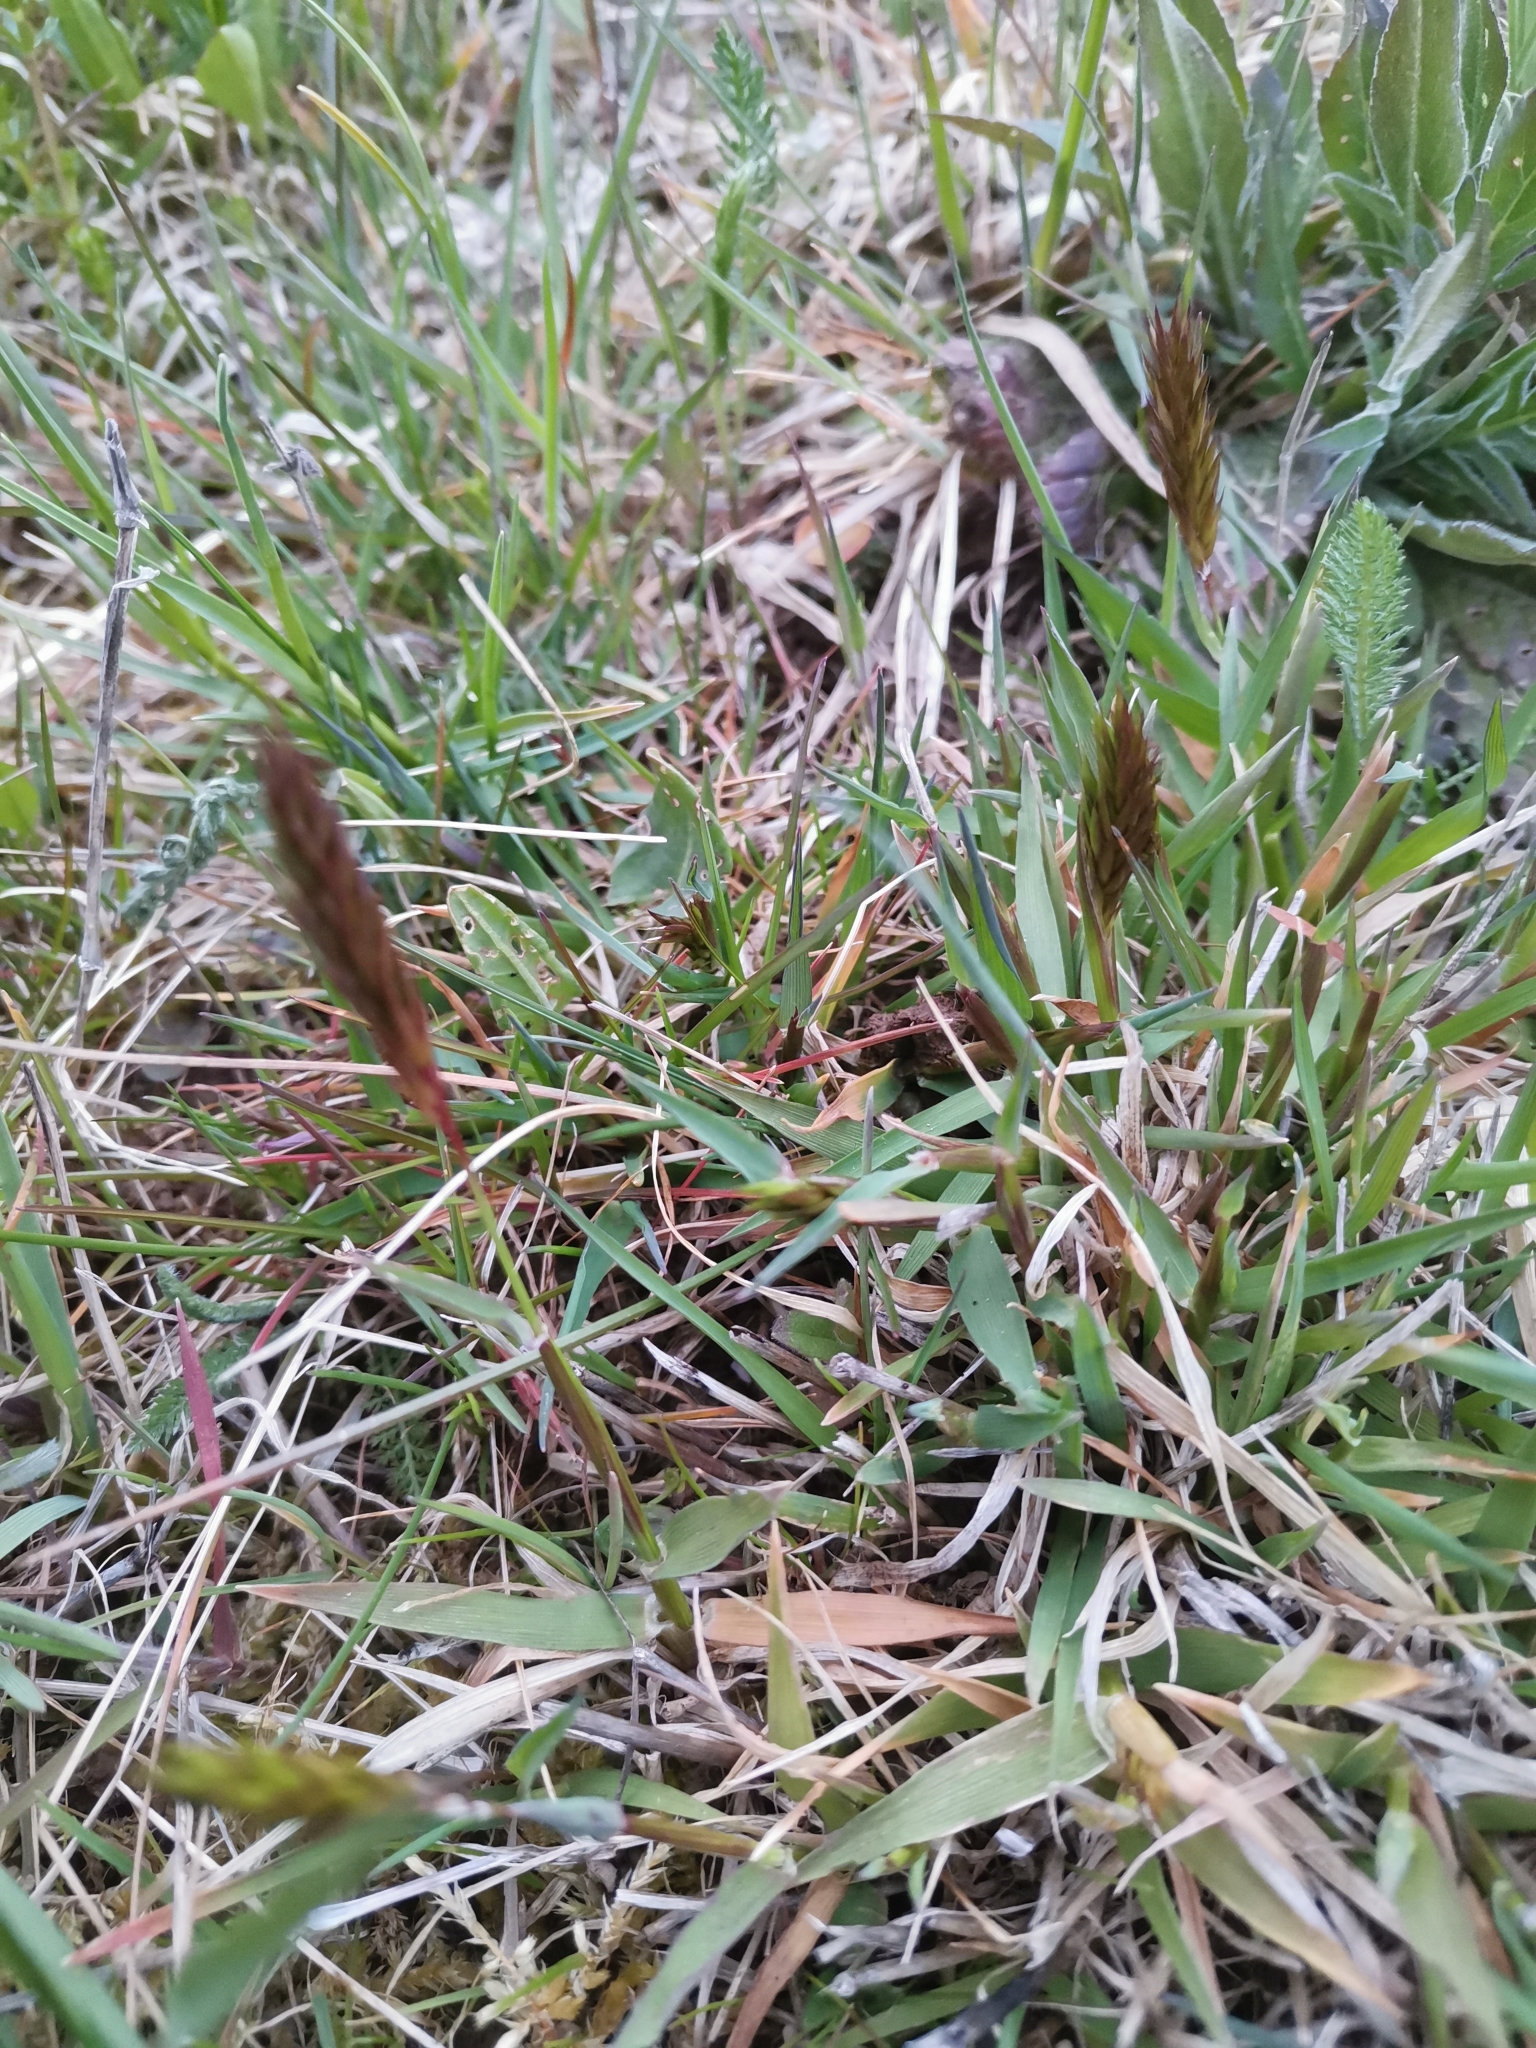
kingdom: Plantae
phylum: Tracheophyta
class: Liliopsida
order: Poales
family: Poaceae
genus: Anthoxanthum
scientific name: Anthoxanthum odoratum
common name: Sweet vernalgrass
